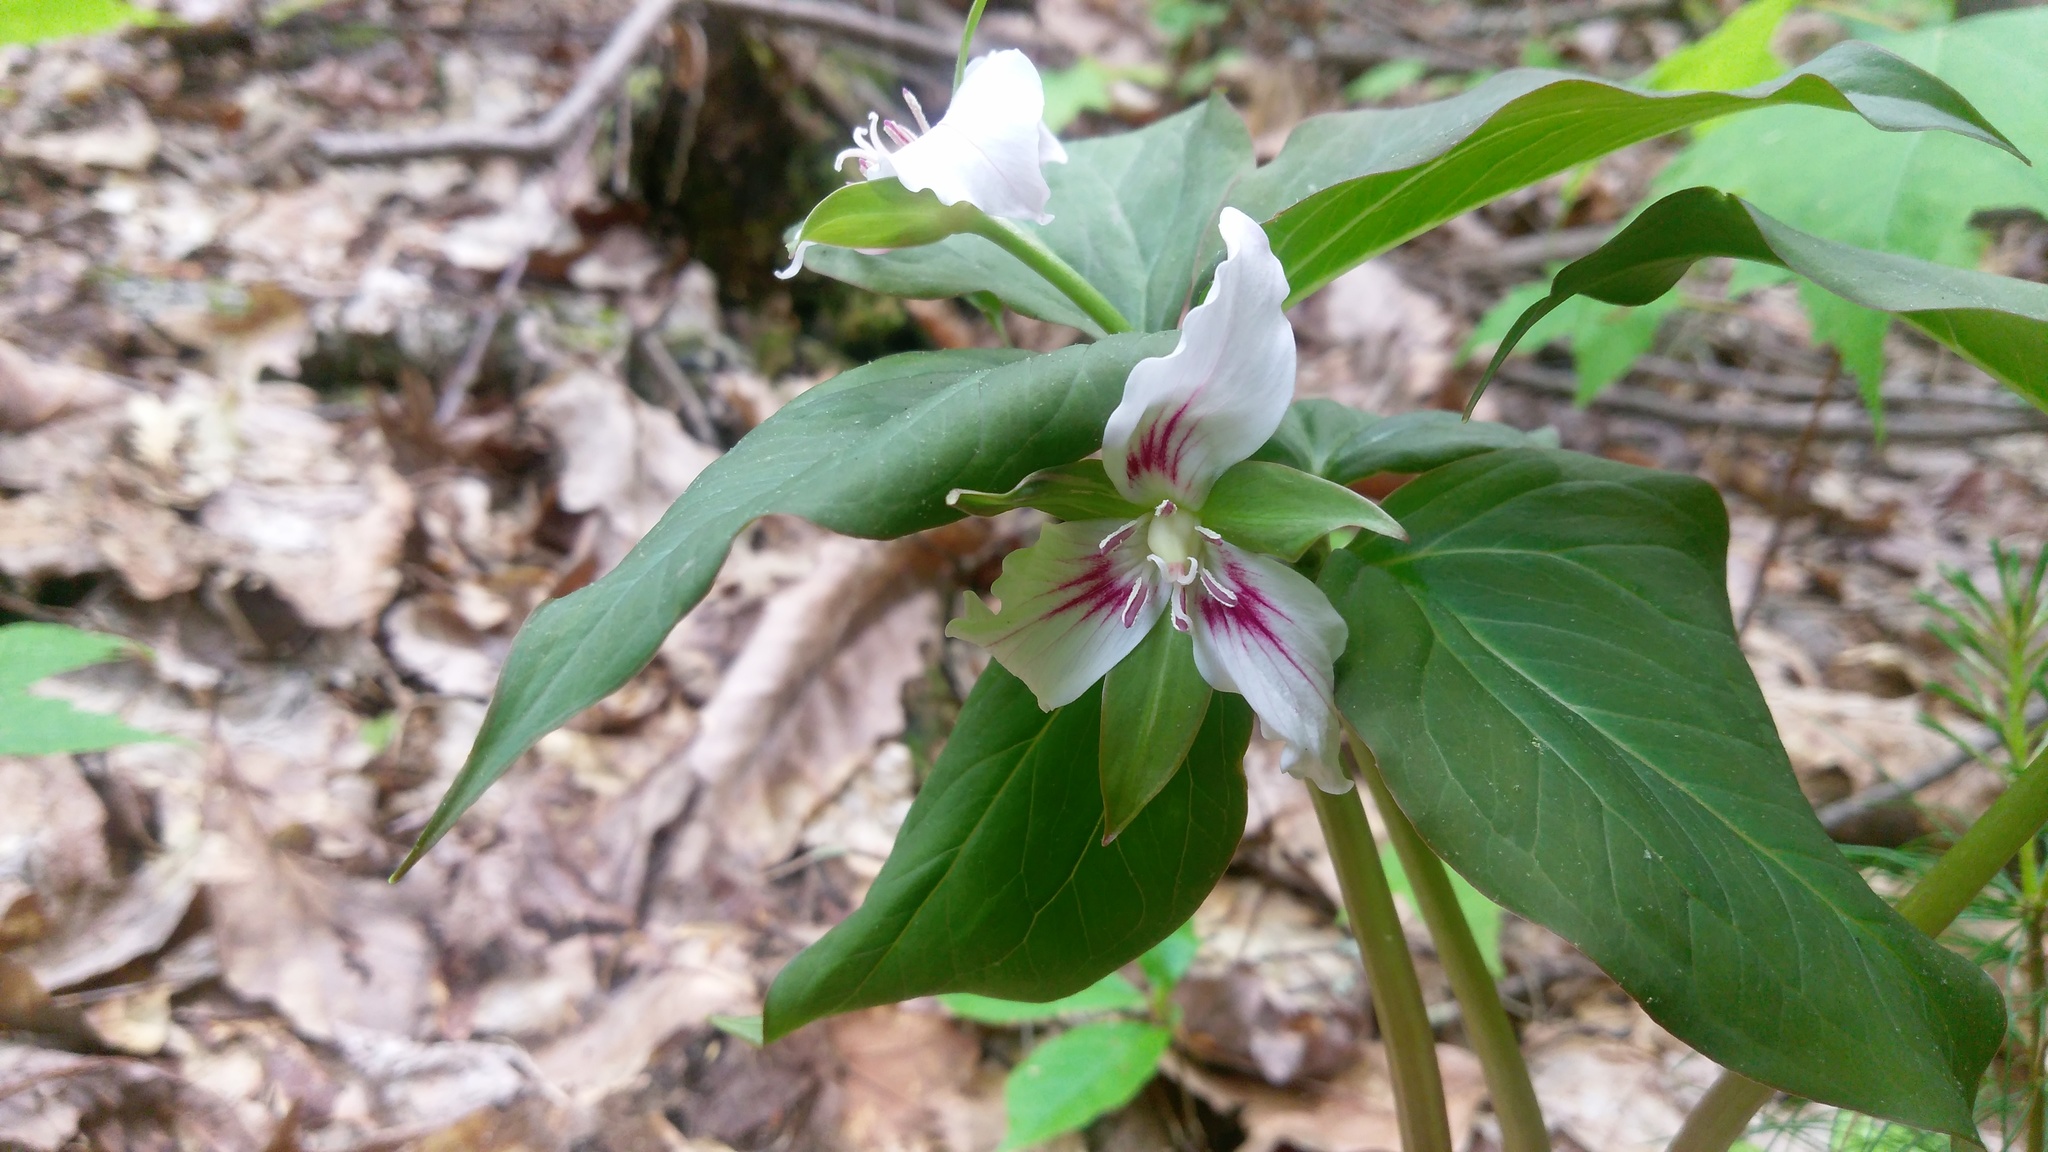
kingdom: Plantae
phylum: Tracheophyta
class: Liliopsida
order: Liliales
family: Melanthiaceae
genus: Trillium
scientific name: Trillium undulatum
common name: Paint trillium
